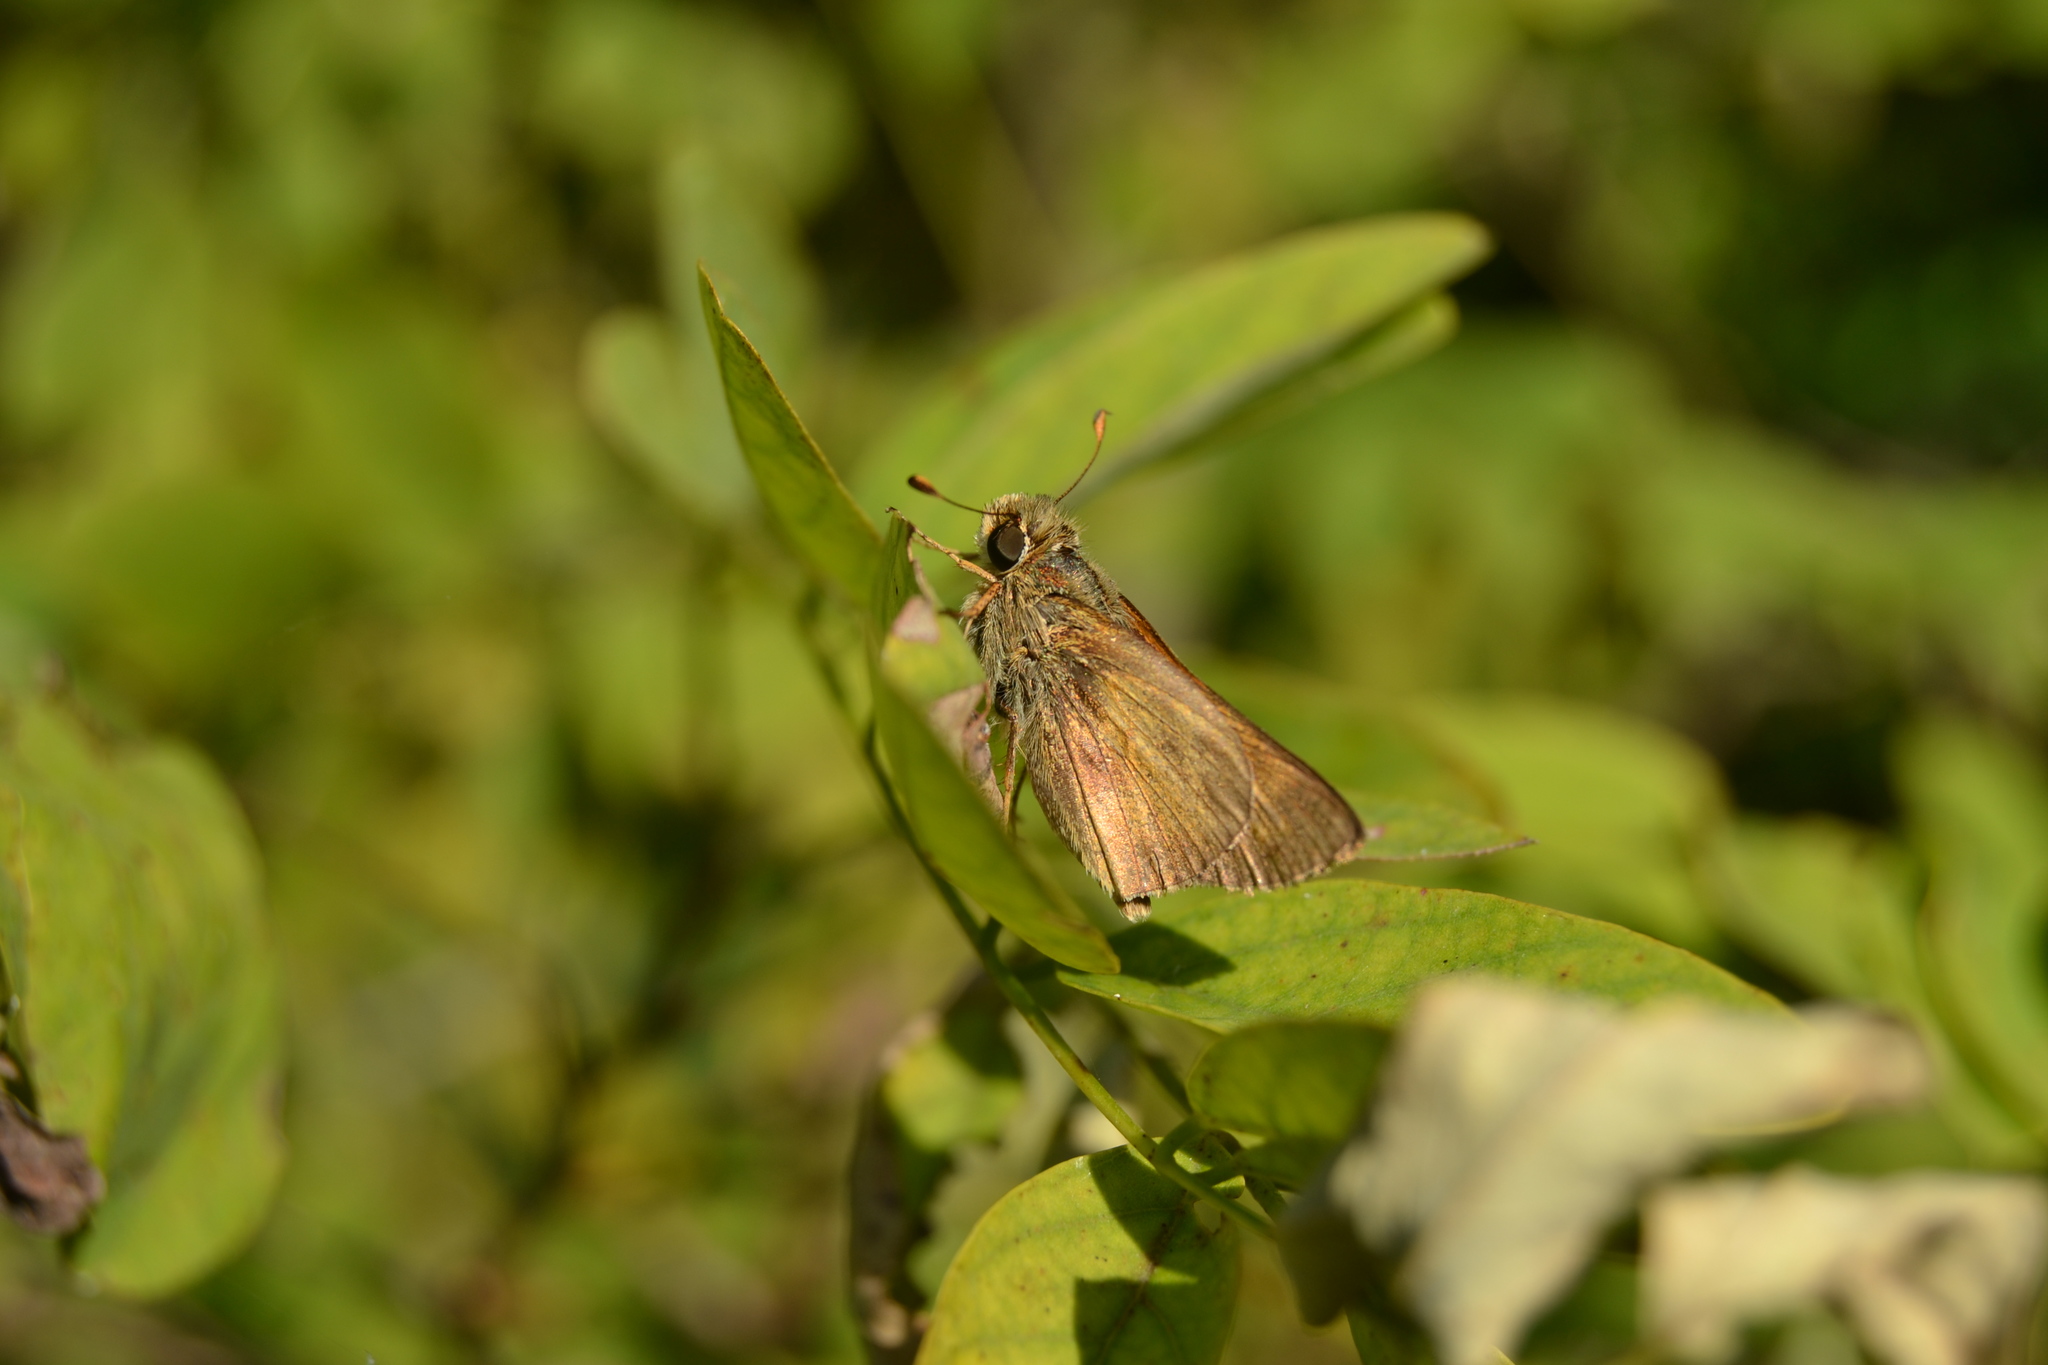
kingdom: Animalia
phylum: Arthropoda
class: Insecta
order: Lepidoptera
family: Hesperiidae
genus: Atalopedes
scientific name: Atalopedes
